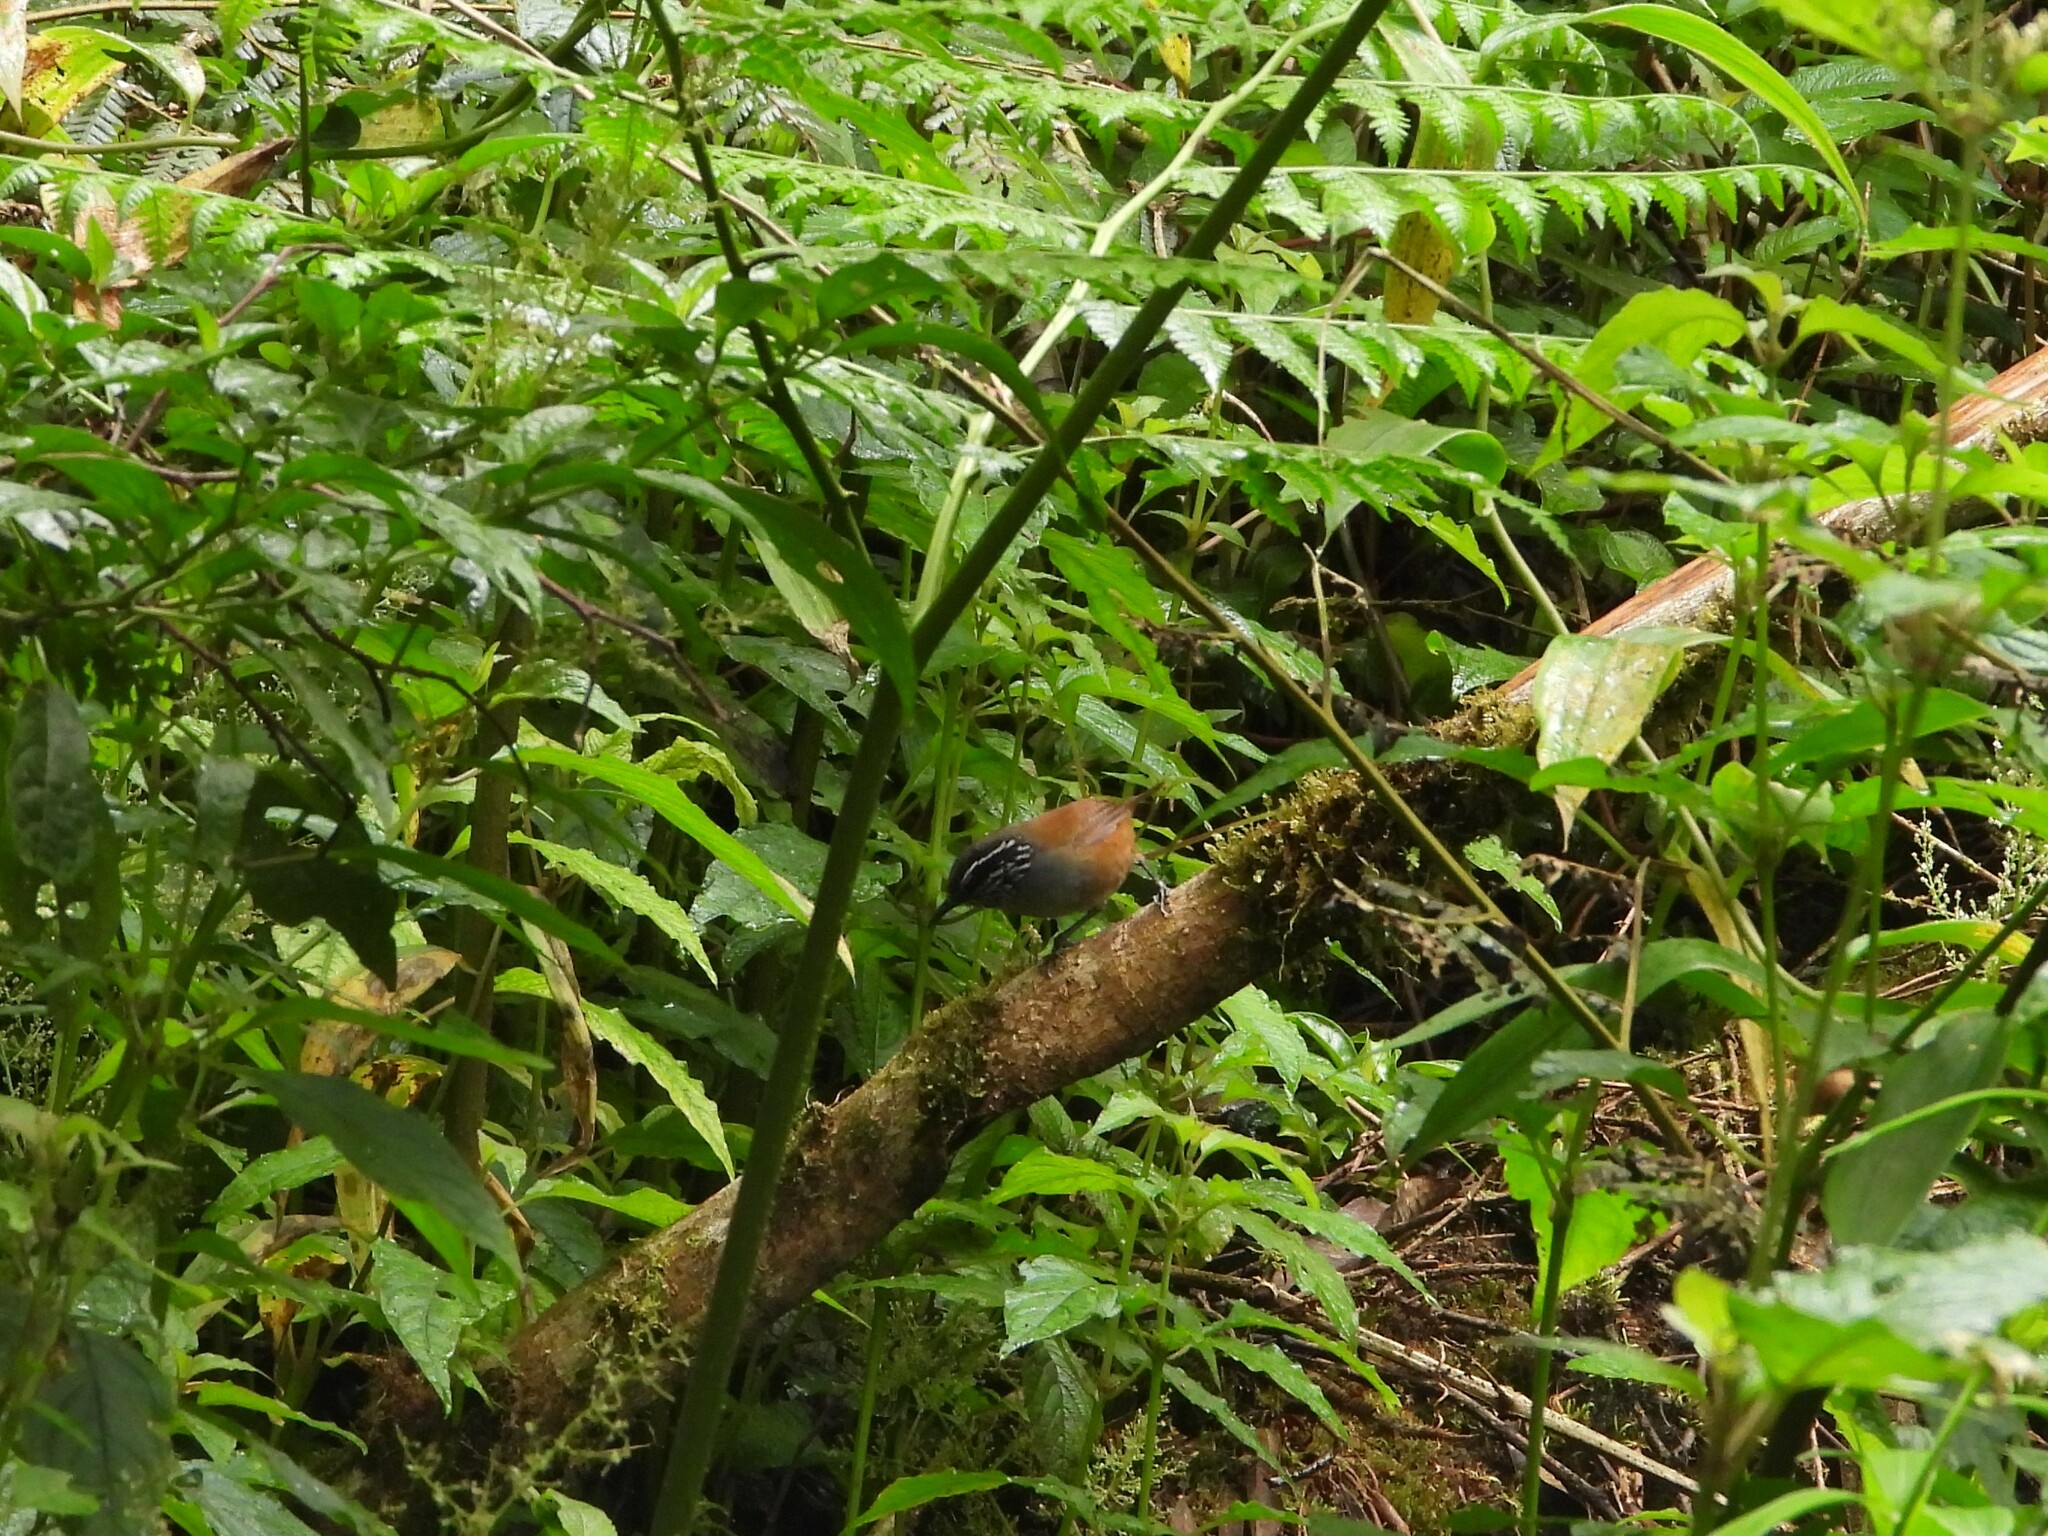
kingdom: Animalia
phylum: Chordata
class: Aves
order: Passeriformes
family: Troglodytidae
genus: Henicorhina
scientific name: Henicorhina leucophrys
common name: Gray-breasted wood-wren
